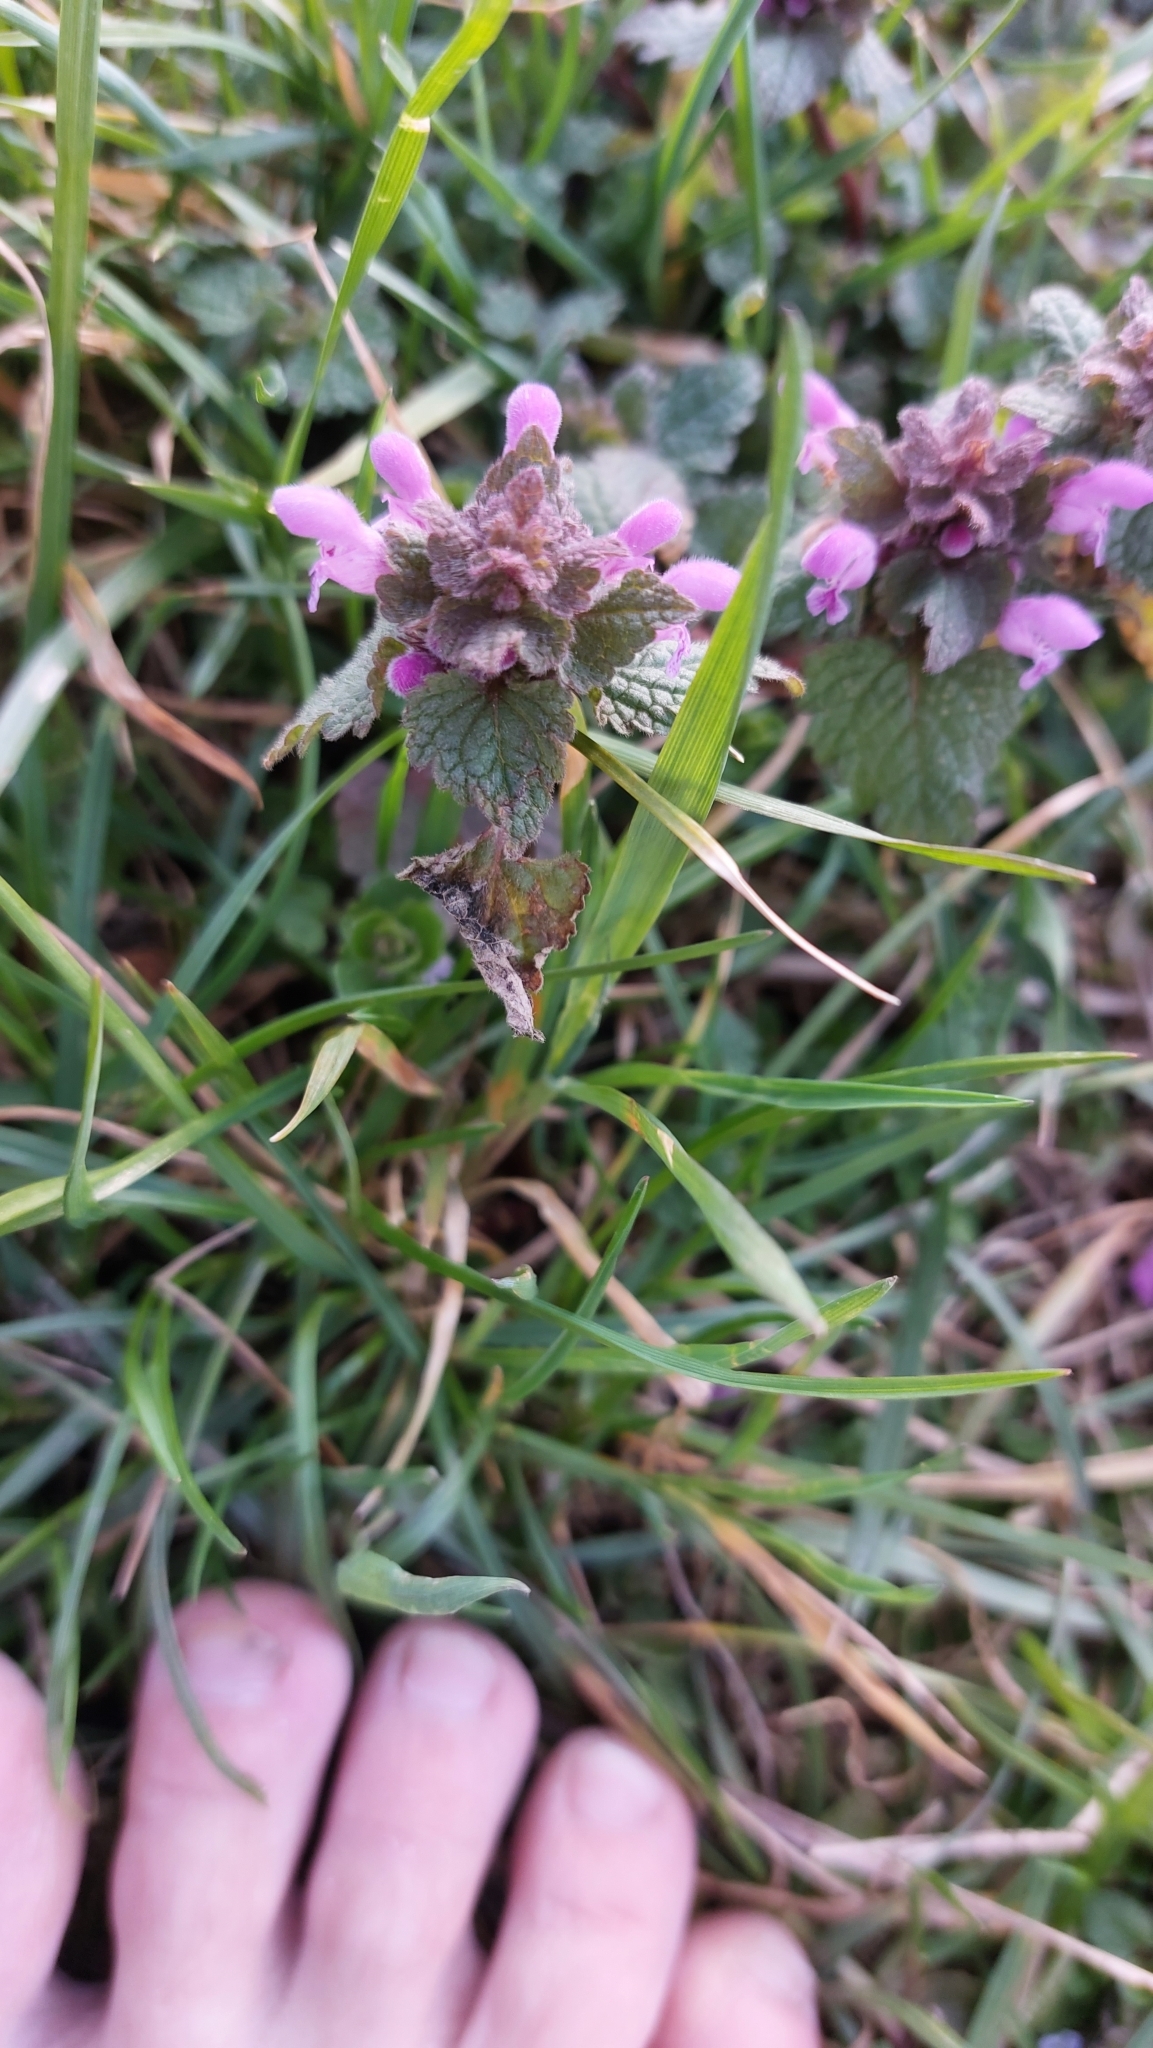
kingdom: Plantae
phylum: Tracheophyta
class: Magnoliopsida
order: Lamiales
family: Lamiaceae
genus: Lamium
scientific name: Lamium purpureum
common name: Red dead-nettle
